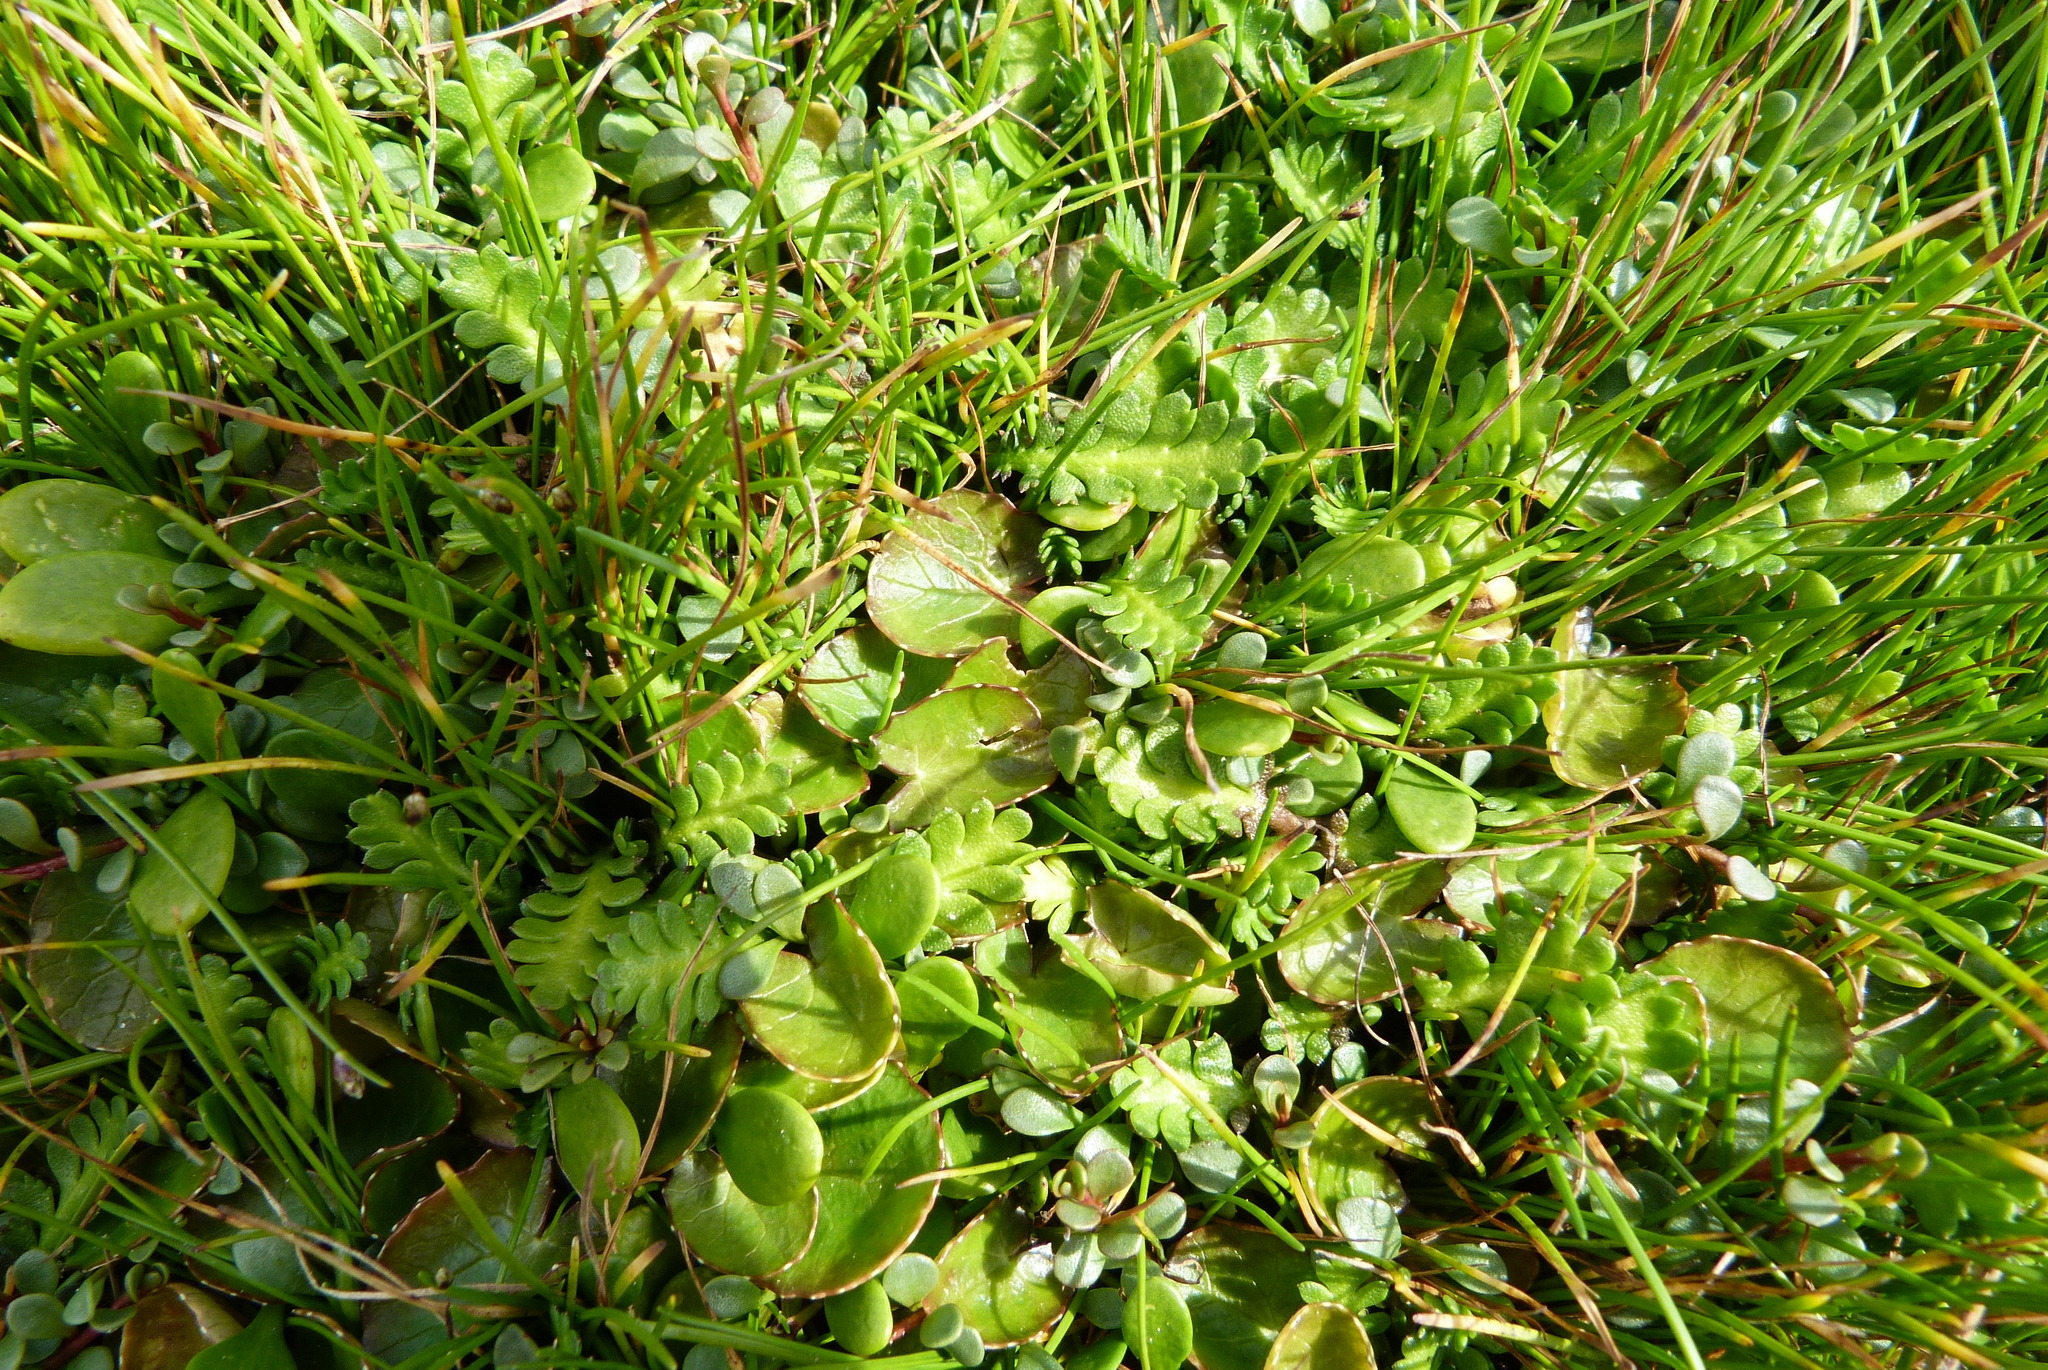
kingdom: Plantae
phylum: Tracheophyta
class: Magnoliopsida
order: Apiales
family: Apiaceae
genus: Centella
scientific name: Centella uniflora
